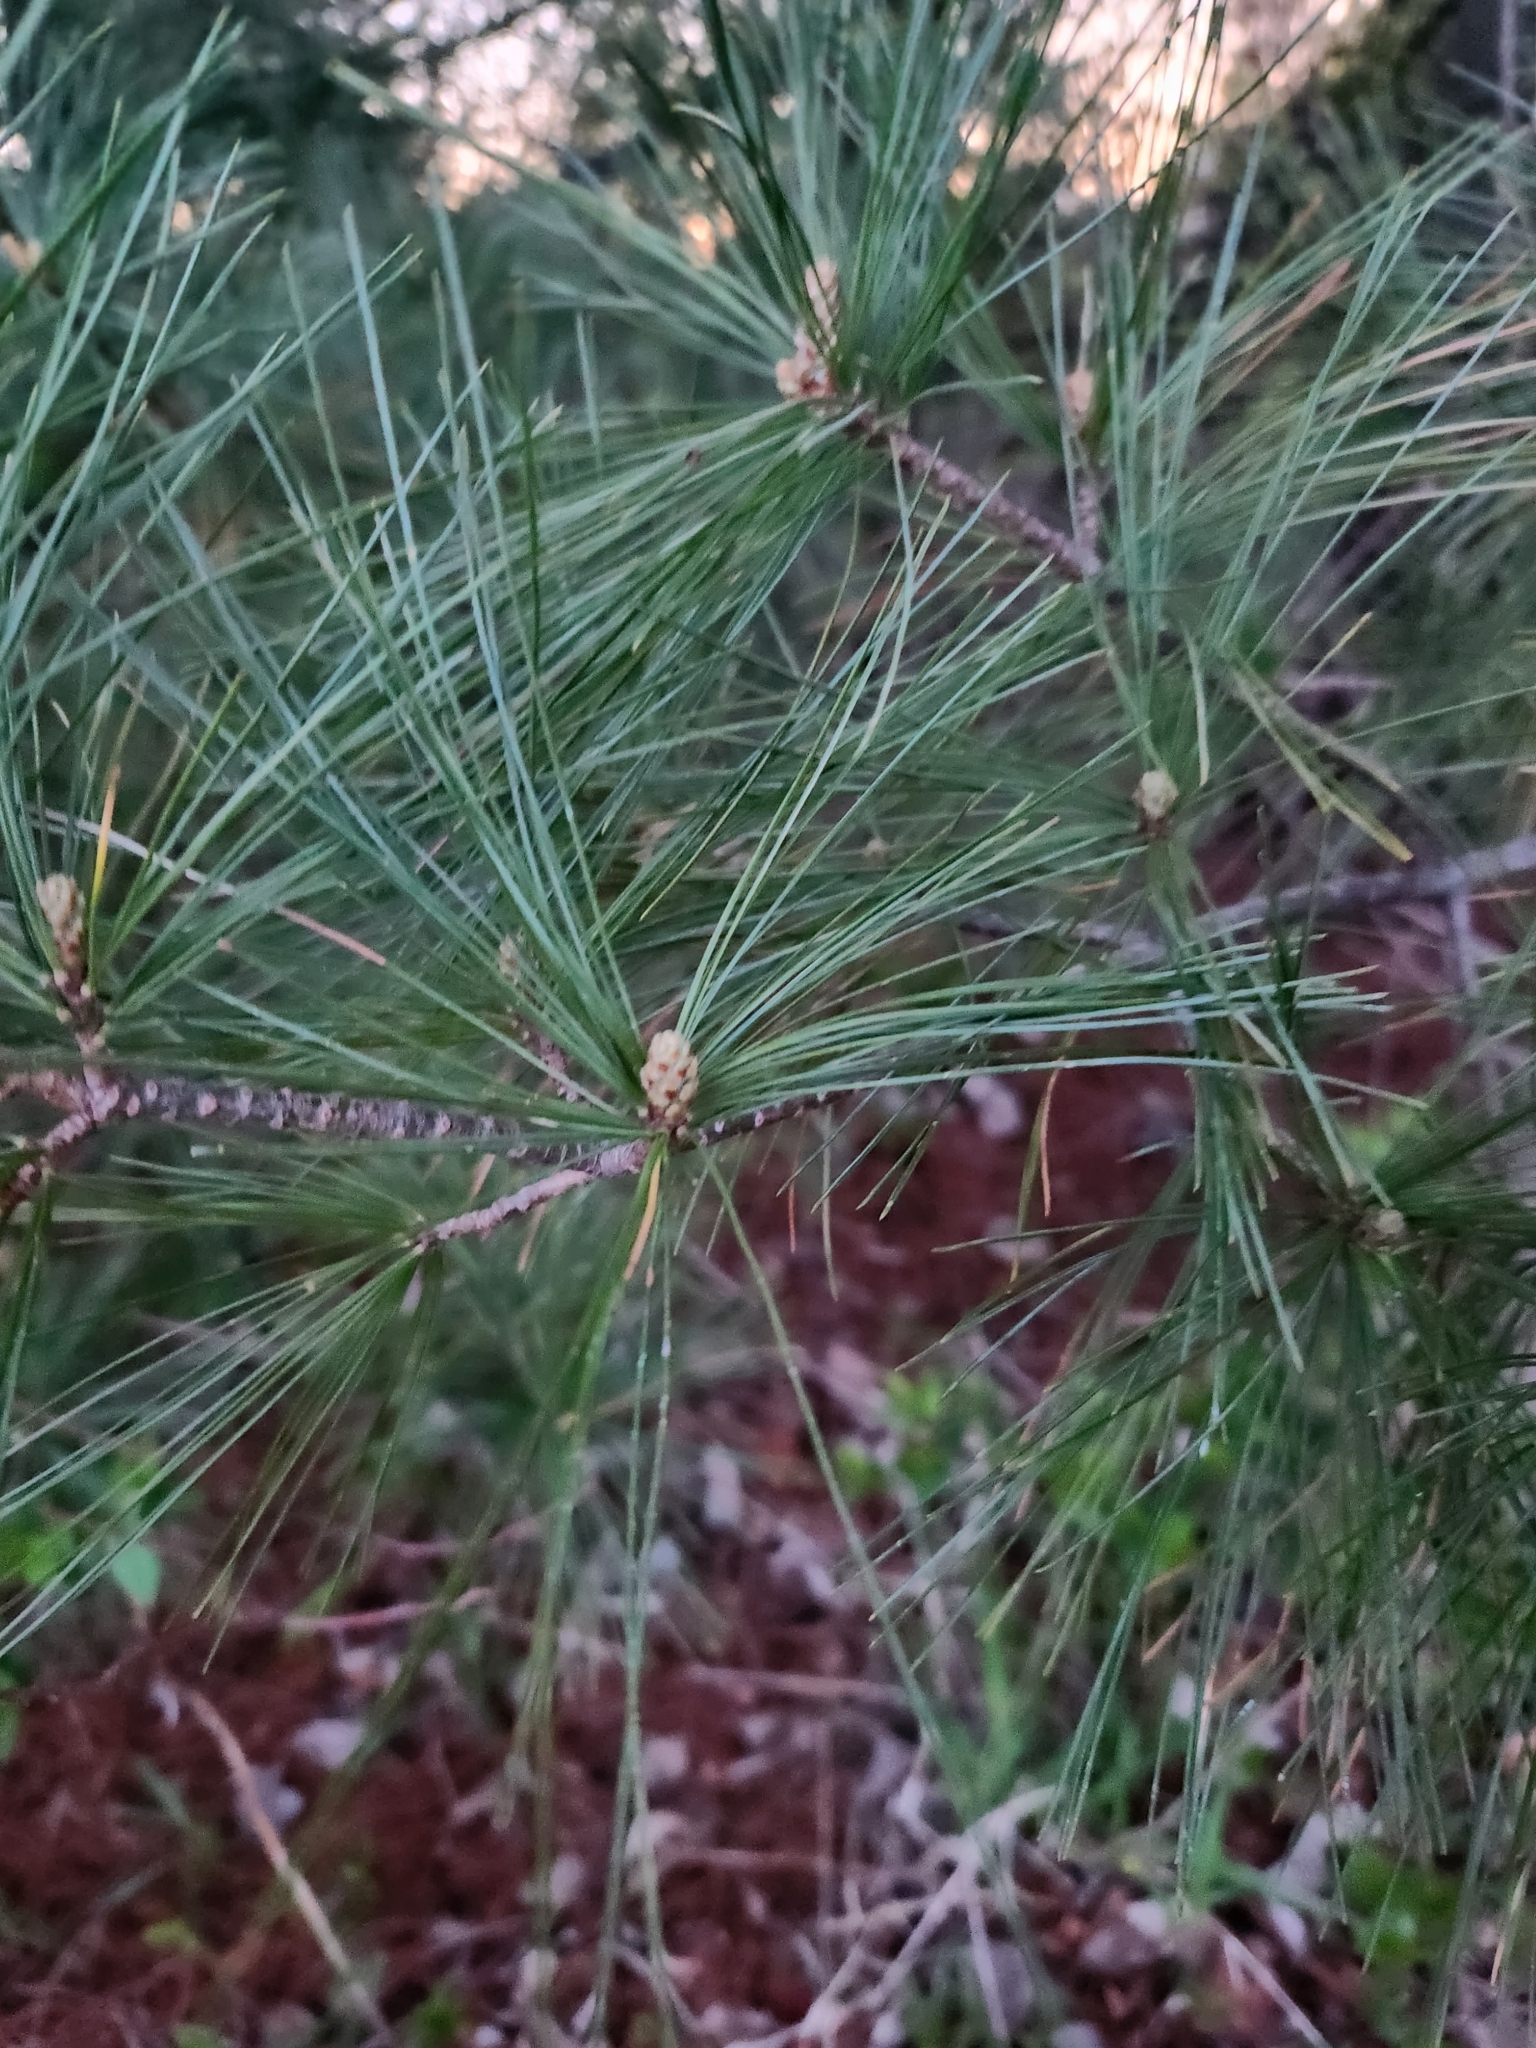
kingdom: Plantae
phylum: Tracheophyta
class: Pinopsida
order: Pinales
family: Pinaceae
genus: Pinus
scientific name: Pinus strobus
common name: Weymouth pine
